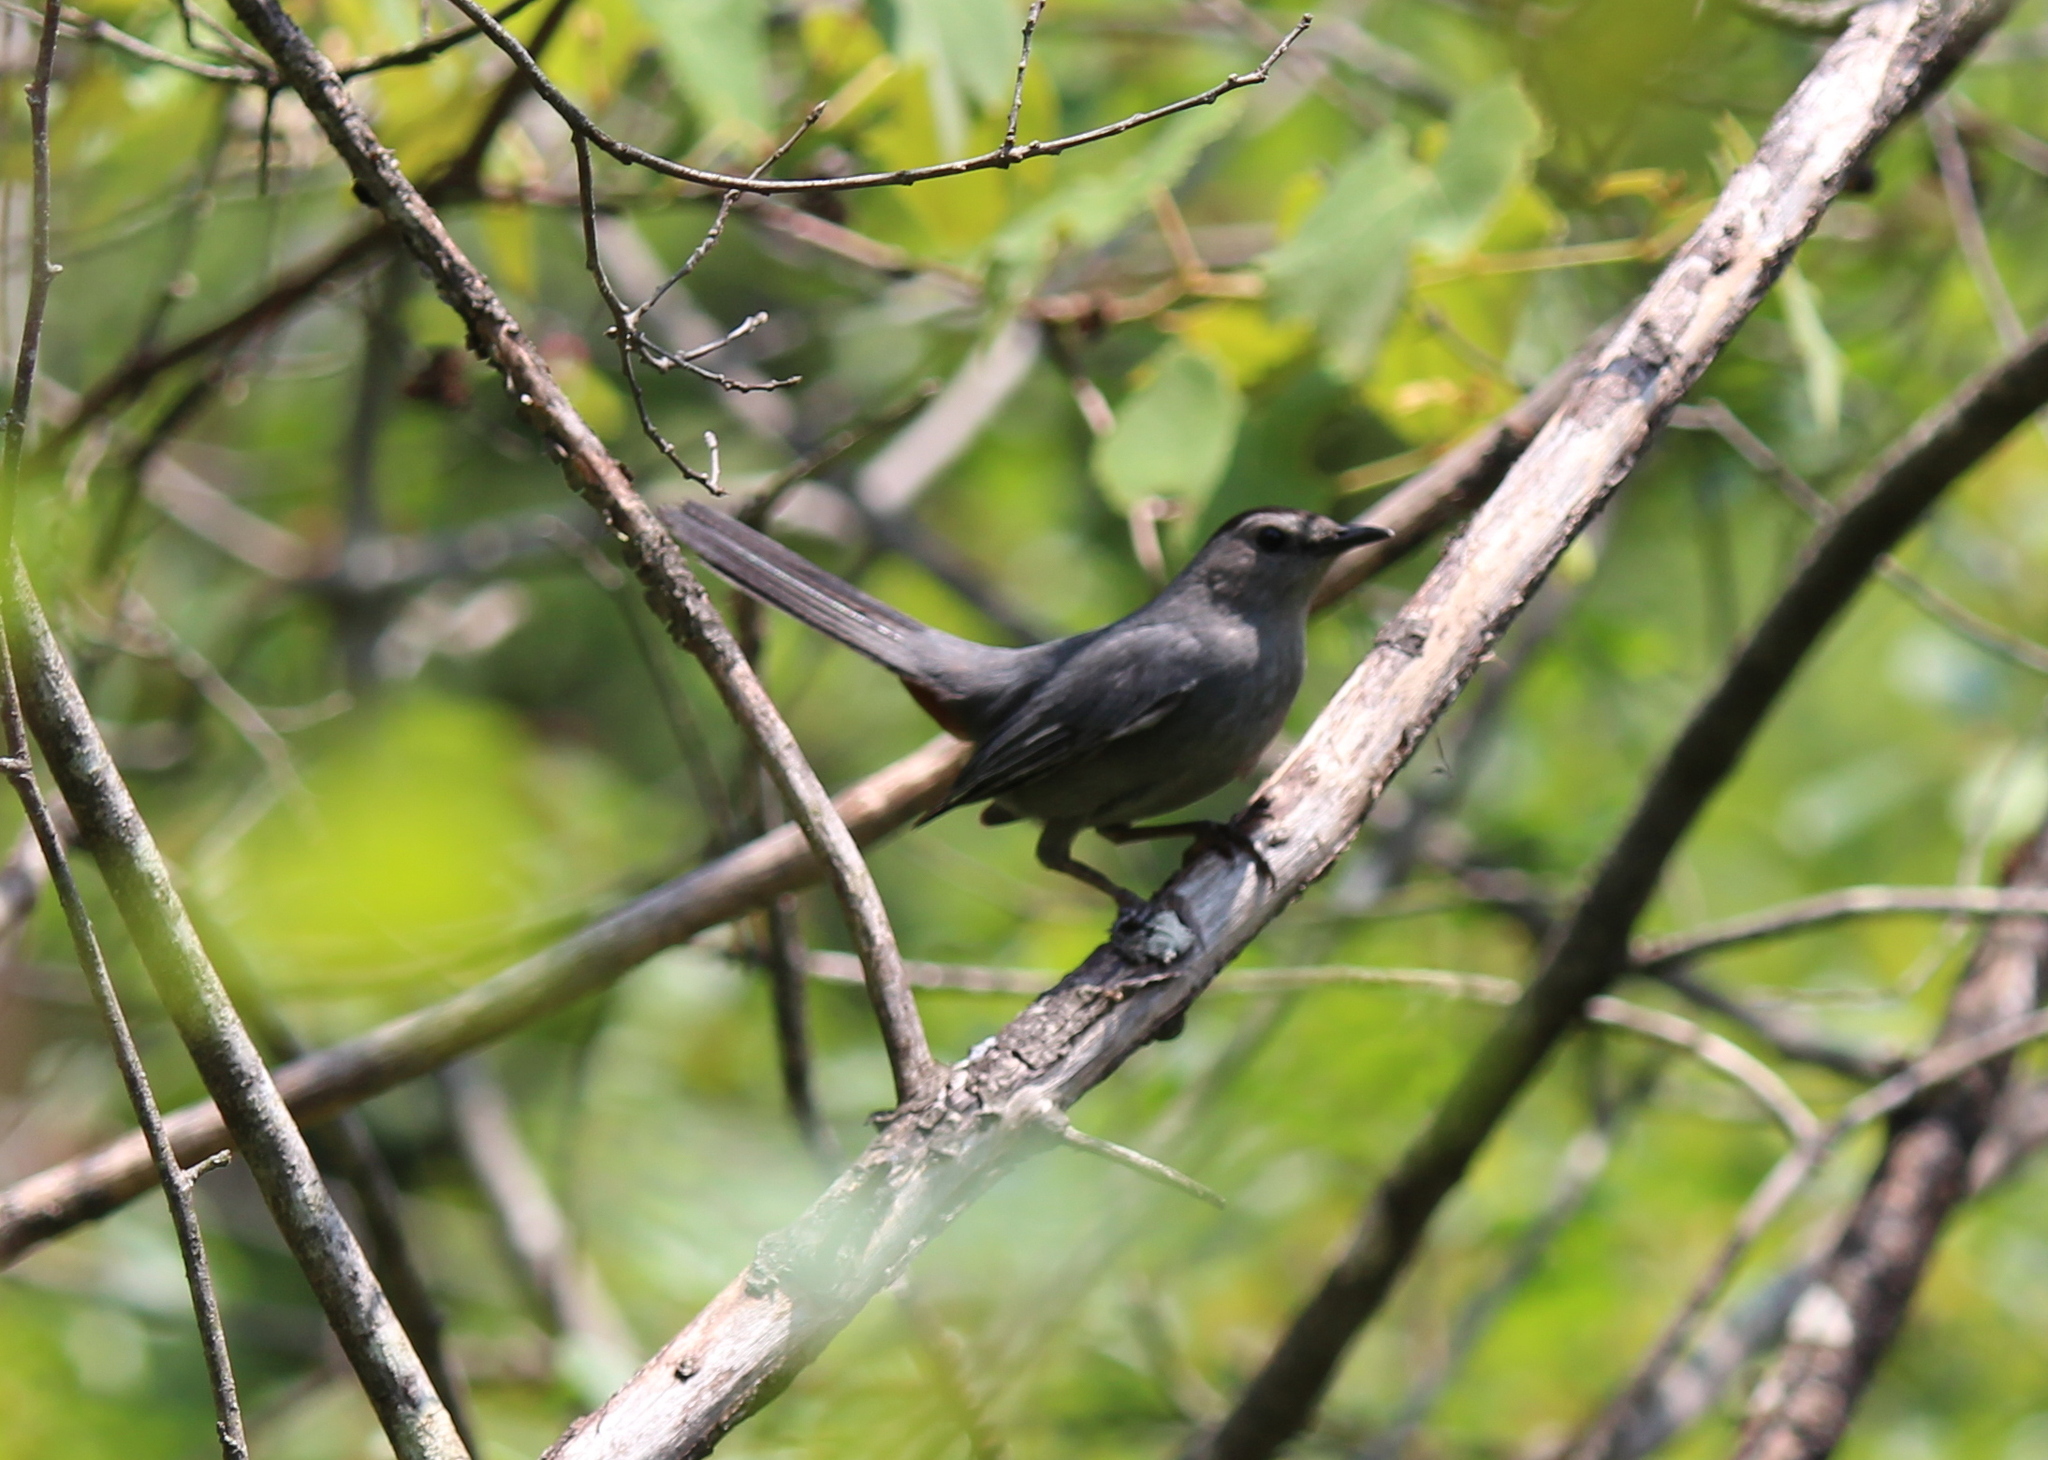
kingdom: Animalia
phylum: Chordata
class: Aves
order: Passeriformes
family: Mimidae
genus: Dumetella
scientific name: Dumetella carolinensis
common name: Gray catbird
